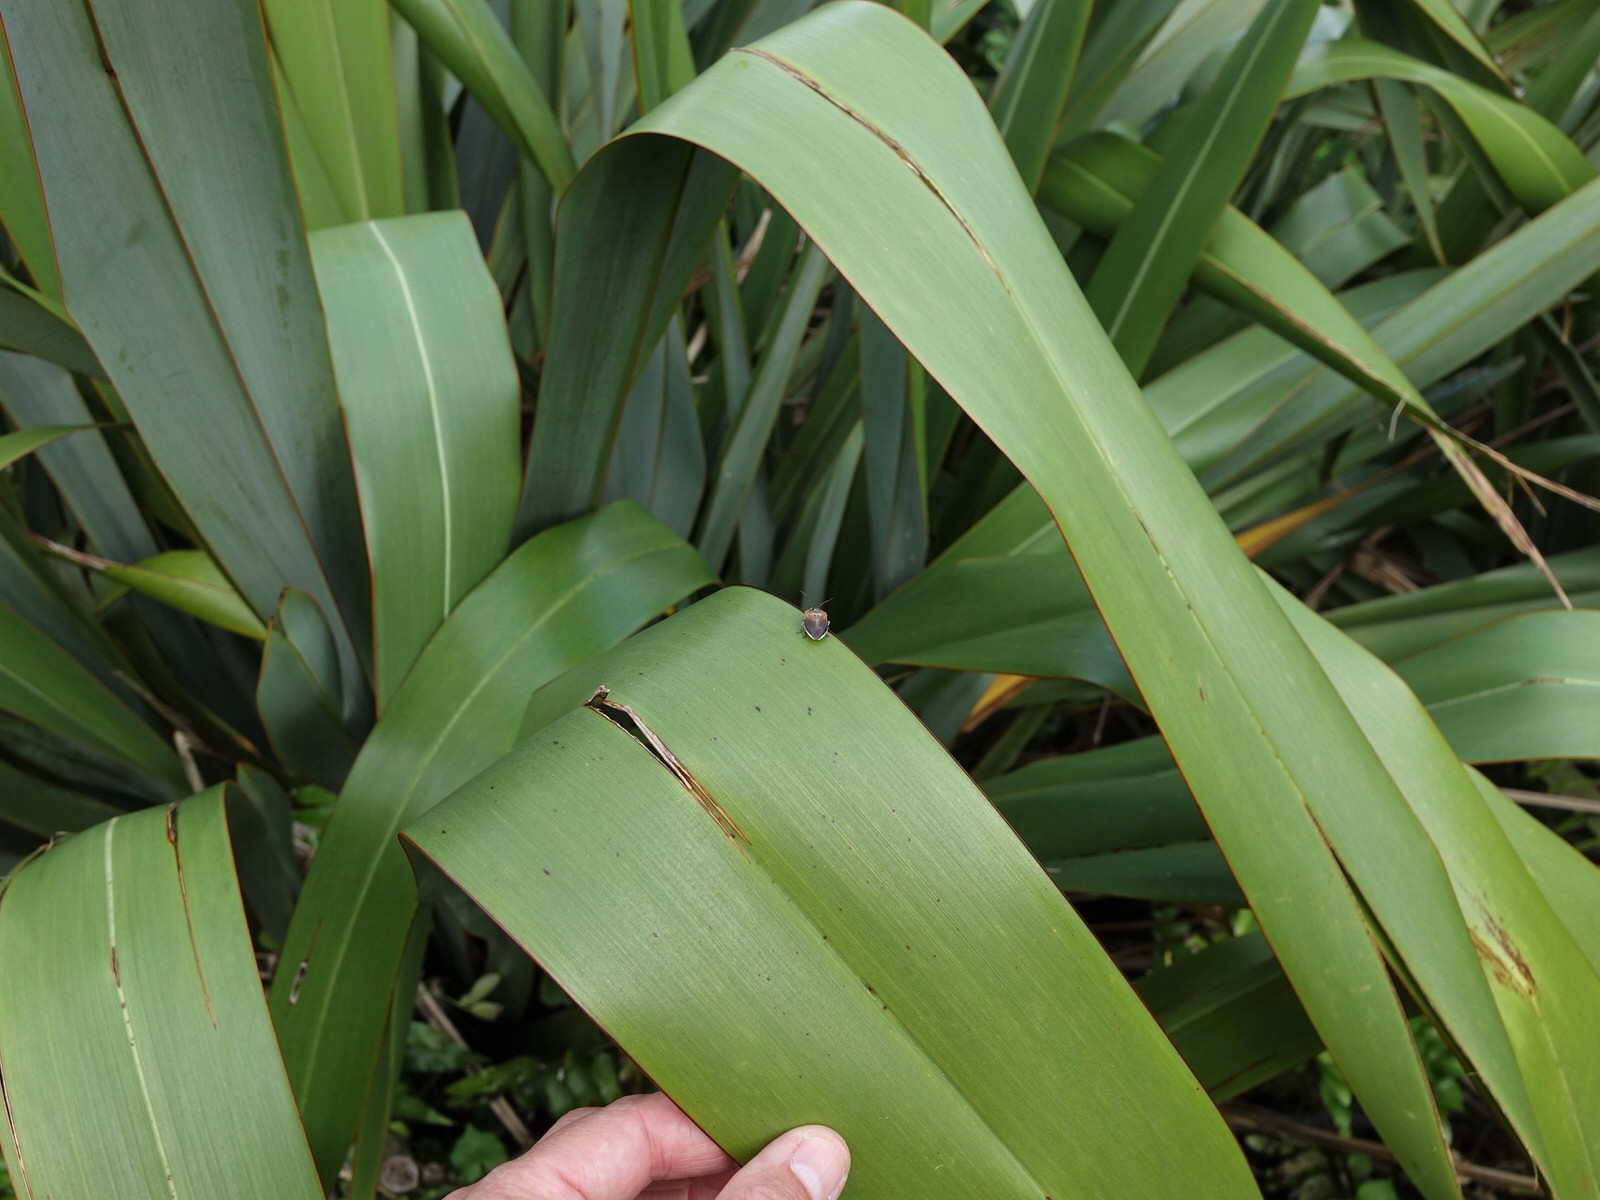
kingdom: Animalia
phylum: Arthropoda
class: Insecta
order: Hemiptera
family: Pentatomidae
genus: Monteithiella
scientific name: Monteithiella
